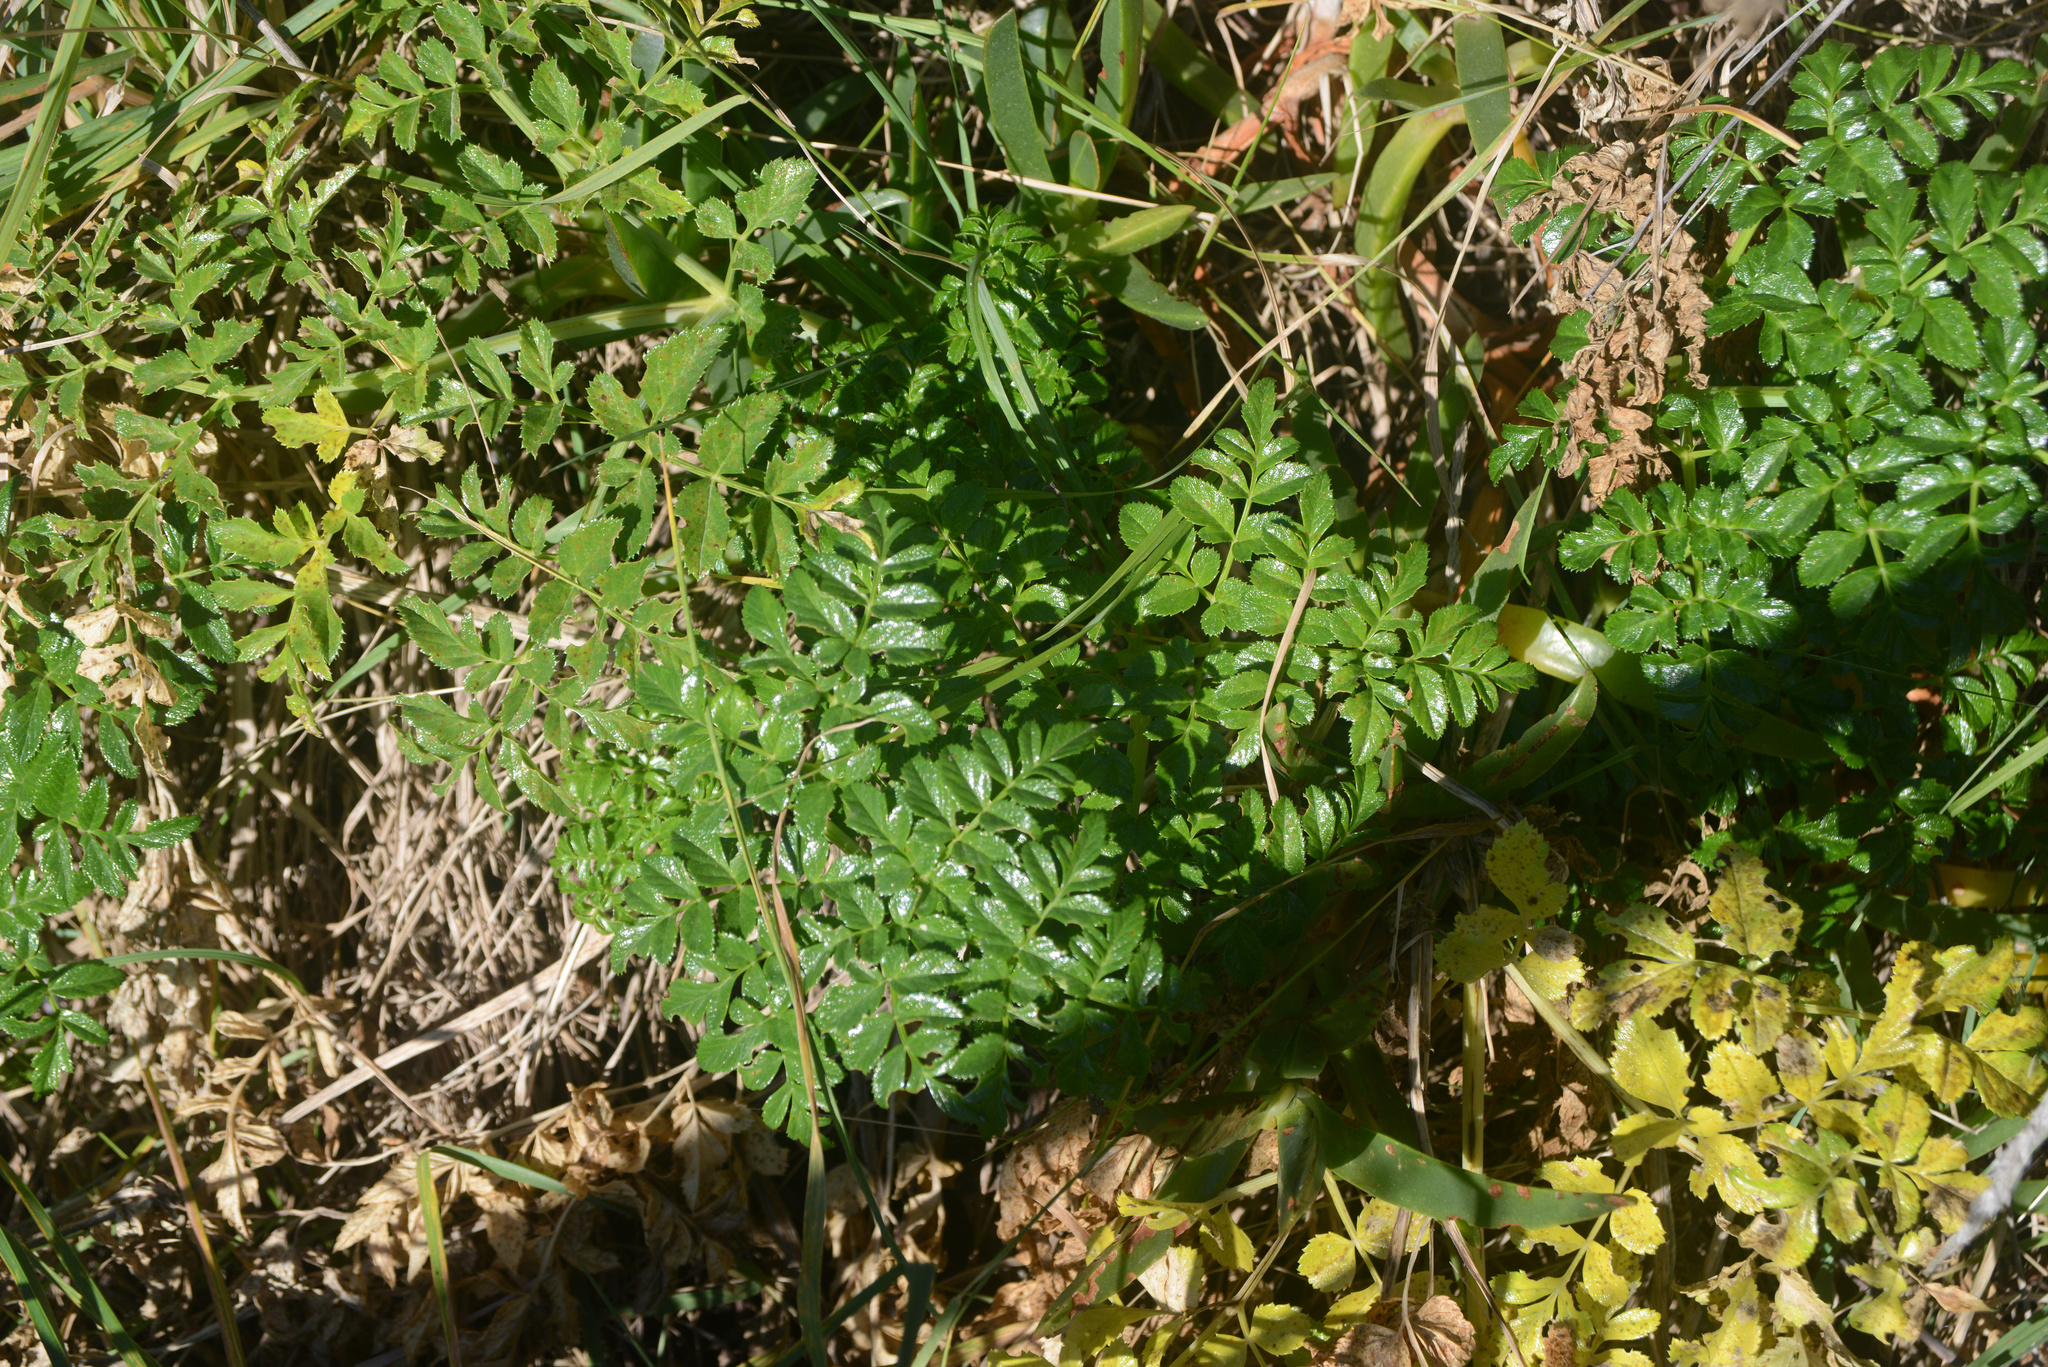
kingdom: Plantae
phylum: Tracheophyta
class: Magnoliopsida
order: Apiales
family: Apiaceae
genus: Angelica
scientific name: Angelica pachycarpa
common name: Portuguese angelica
